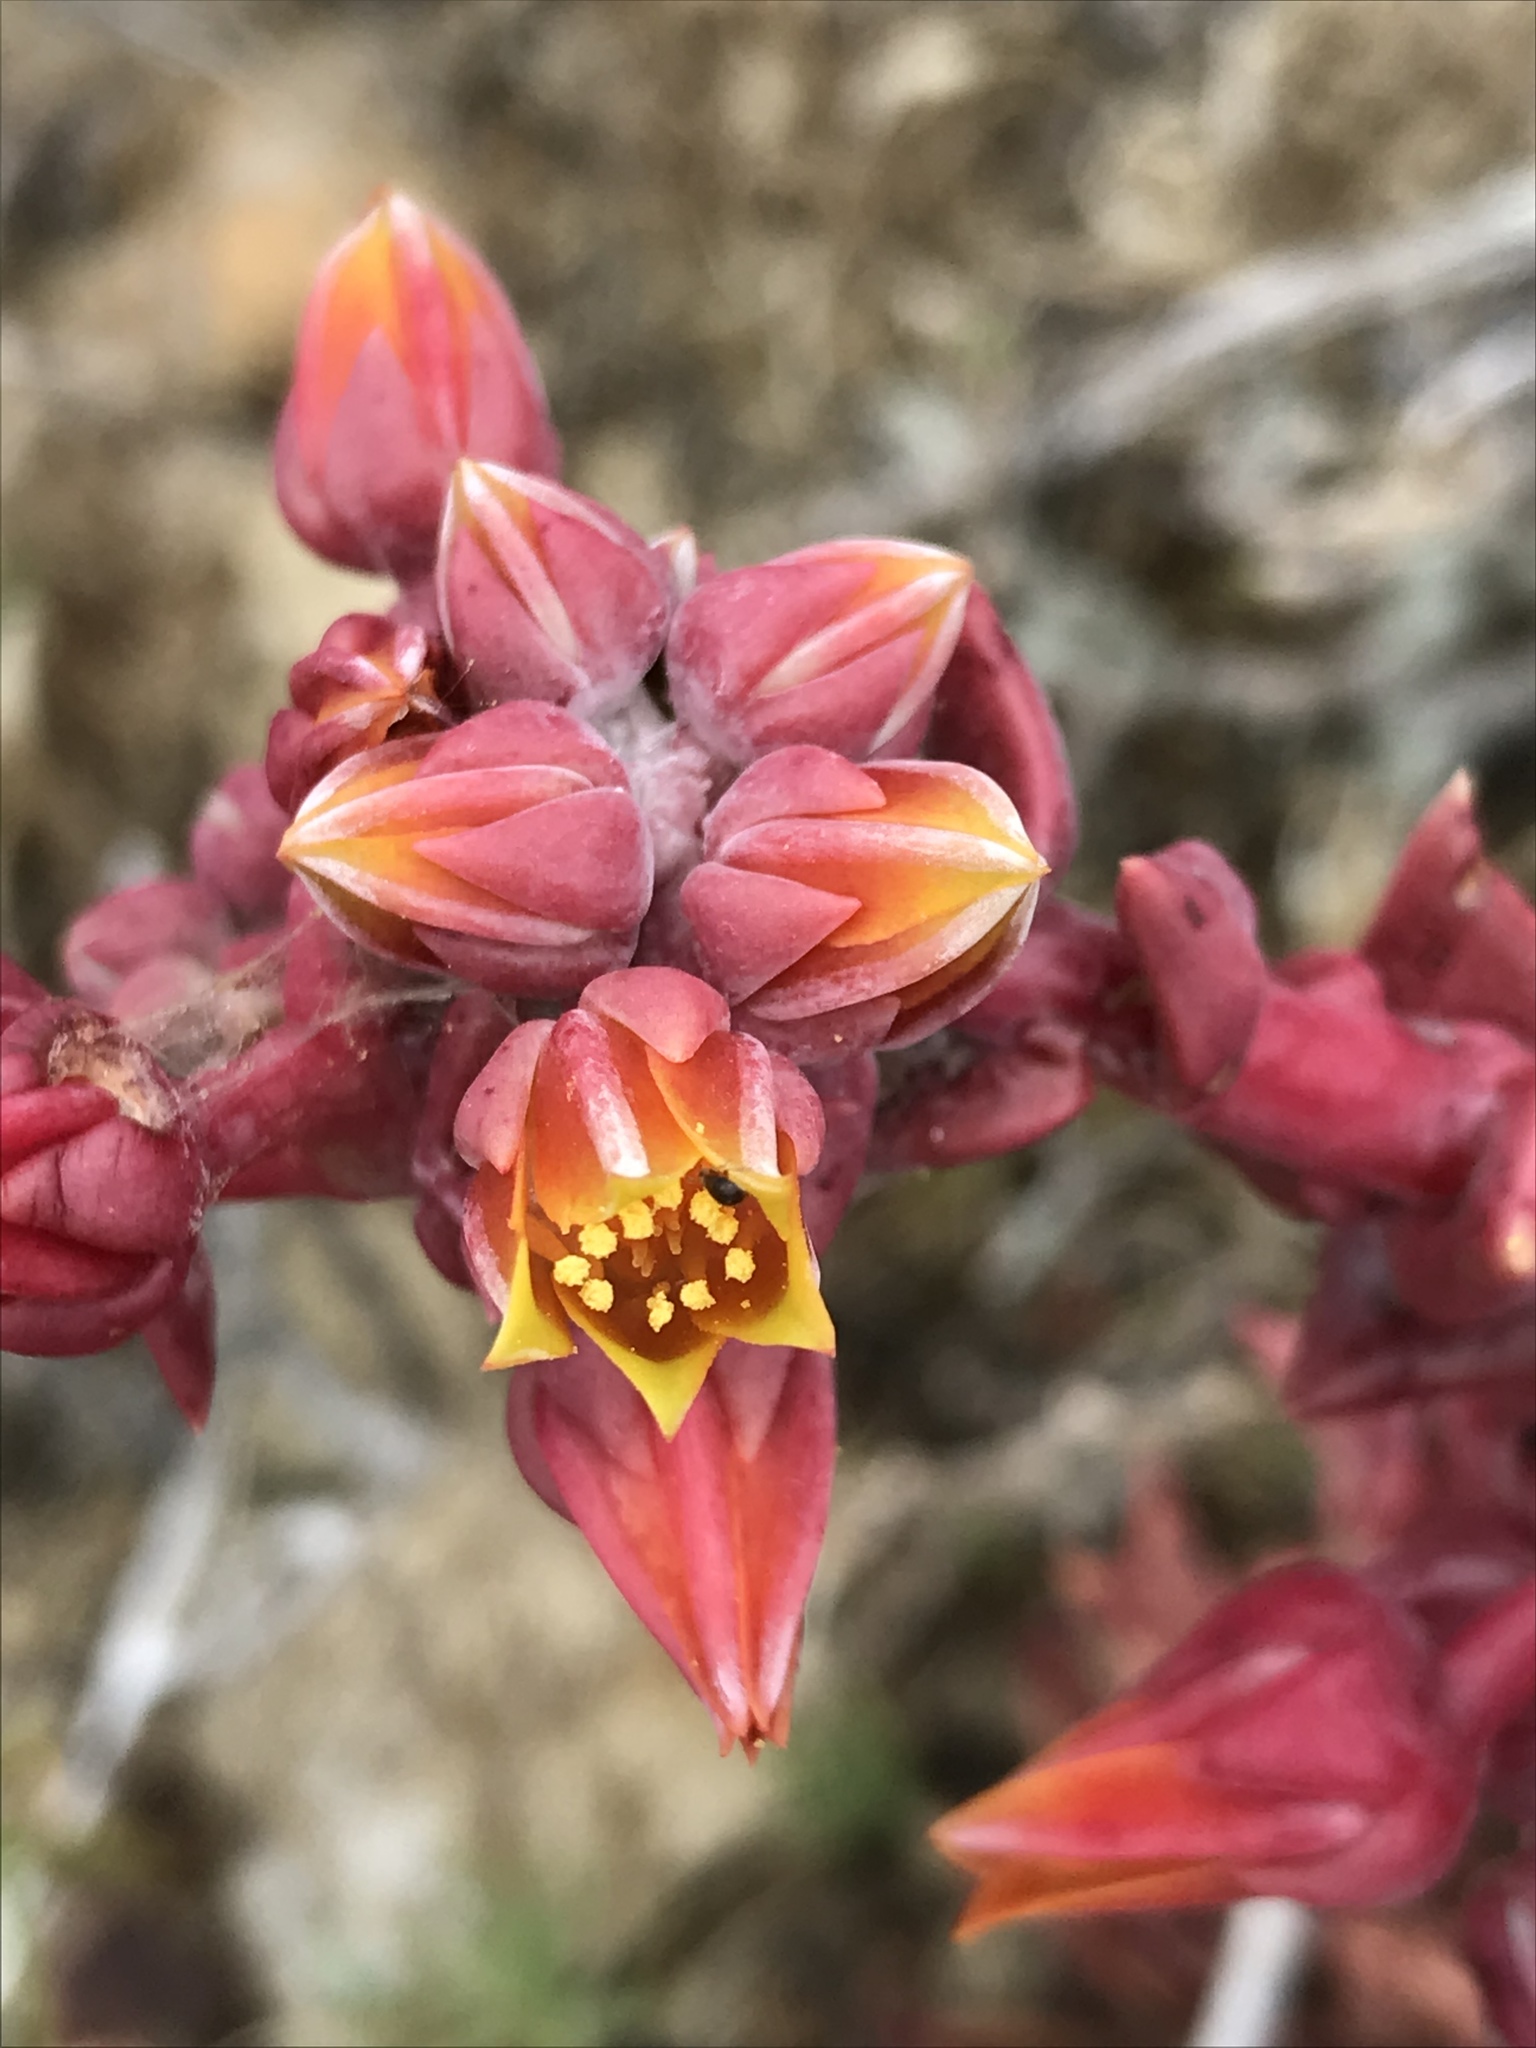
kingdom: Plantae
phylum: Tracheophyta
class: Magnoliopsida
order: Saxifragales
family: Crassulaceae
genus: Dudleya
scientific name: Dudleya lanceolata
